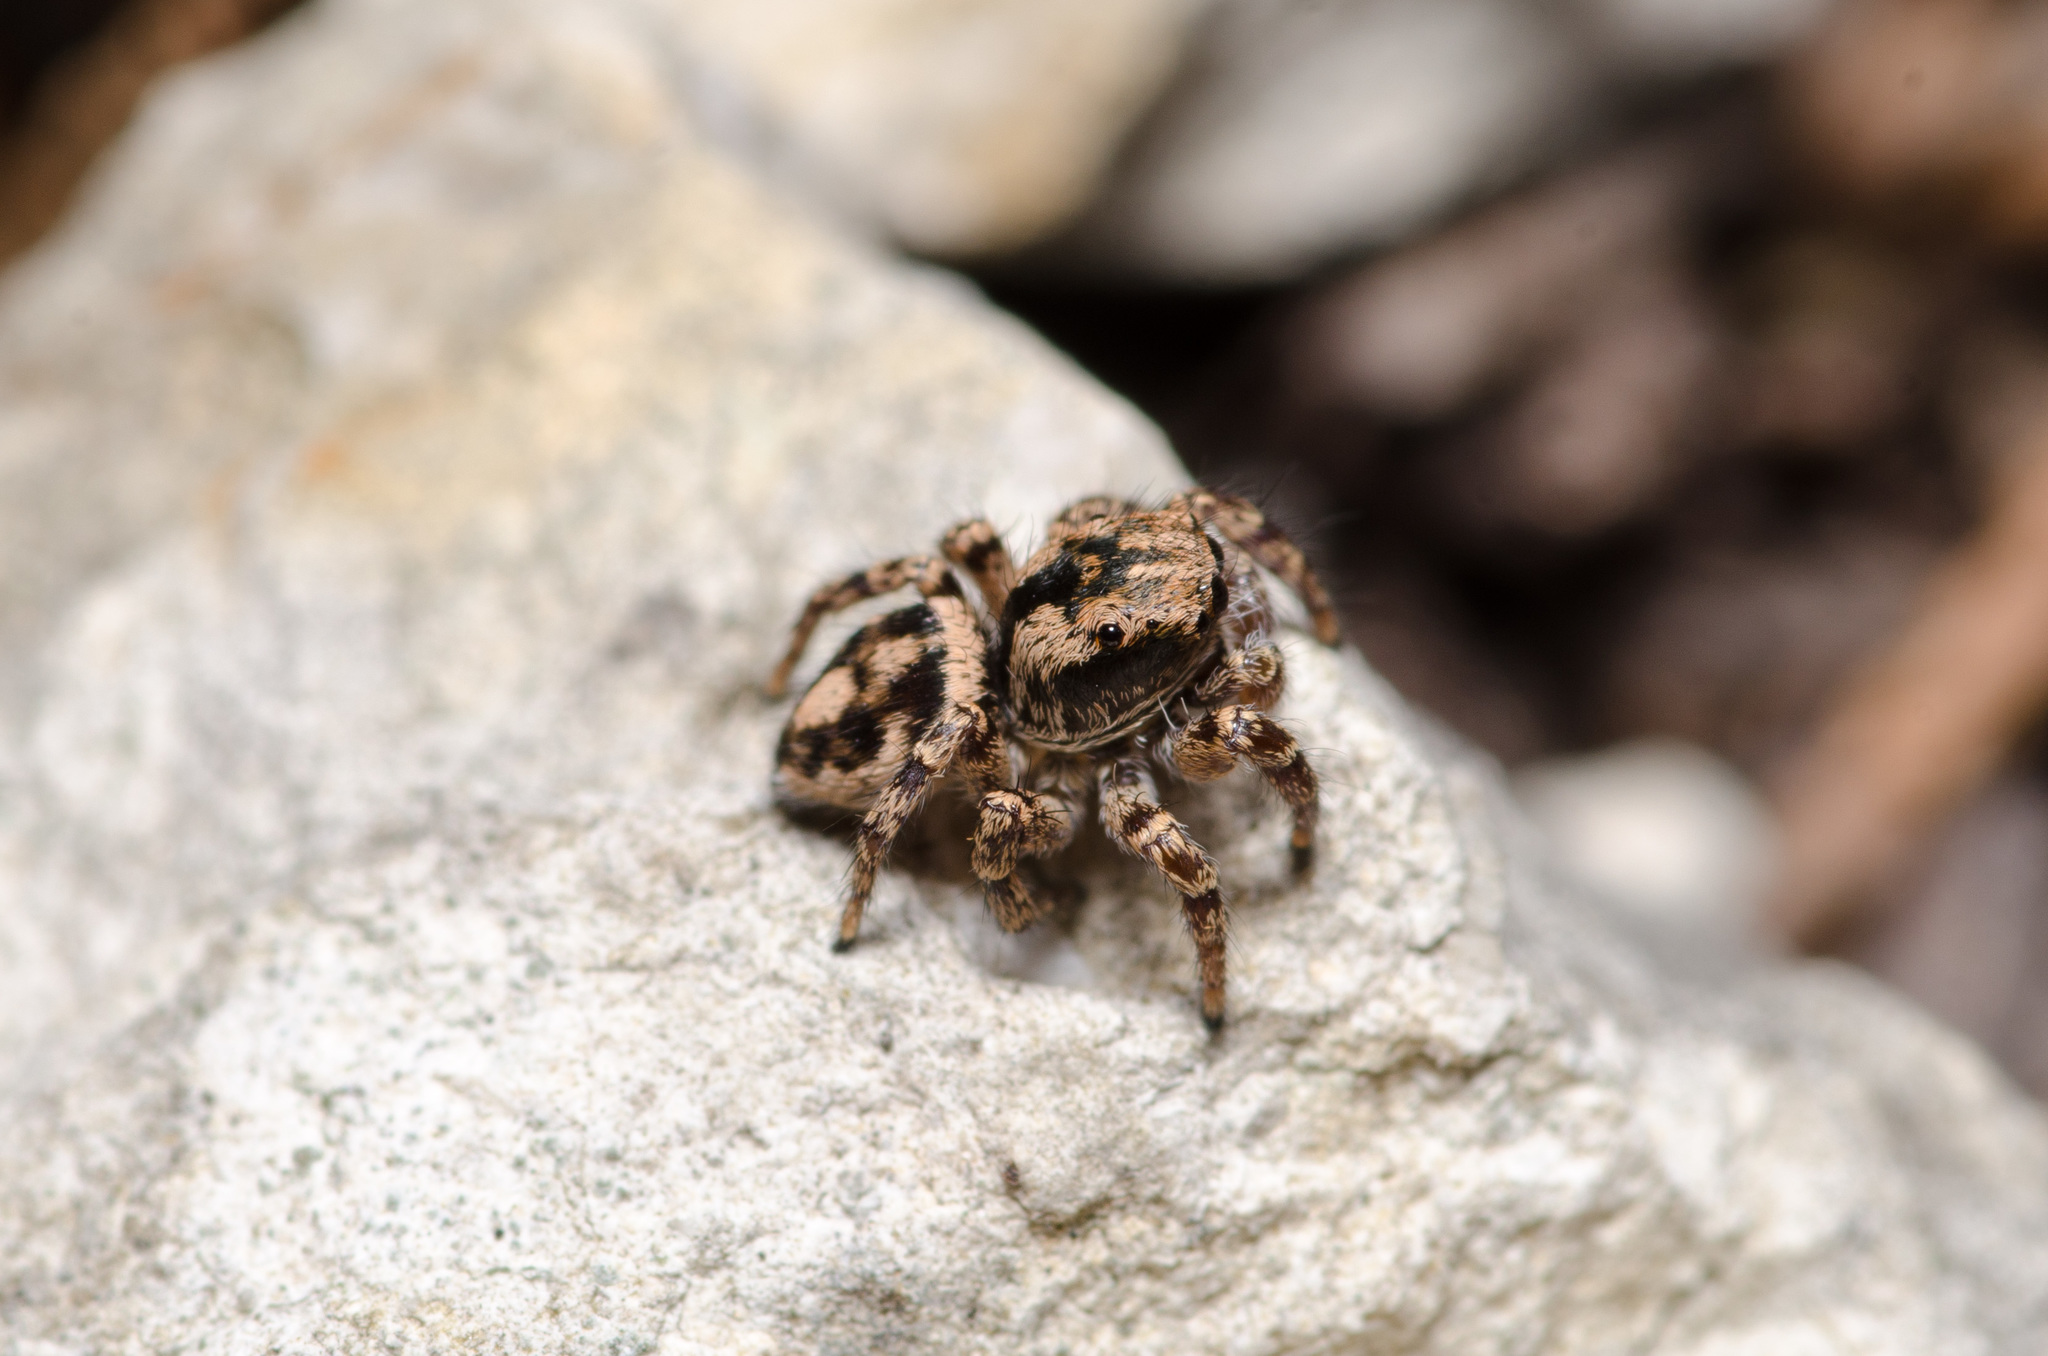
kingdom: Animalia
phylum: Arthropoda
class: Arachnida
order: Araneae
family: Salticidae
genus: Habronattus
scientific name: Habronattus fallax
